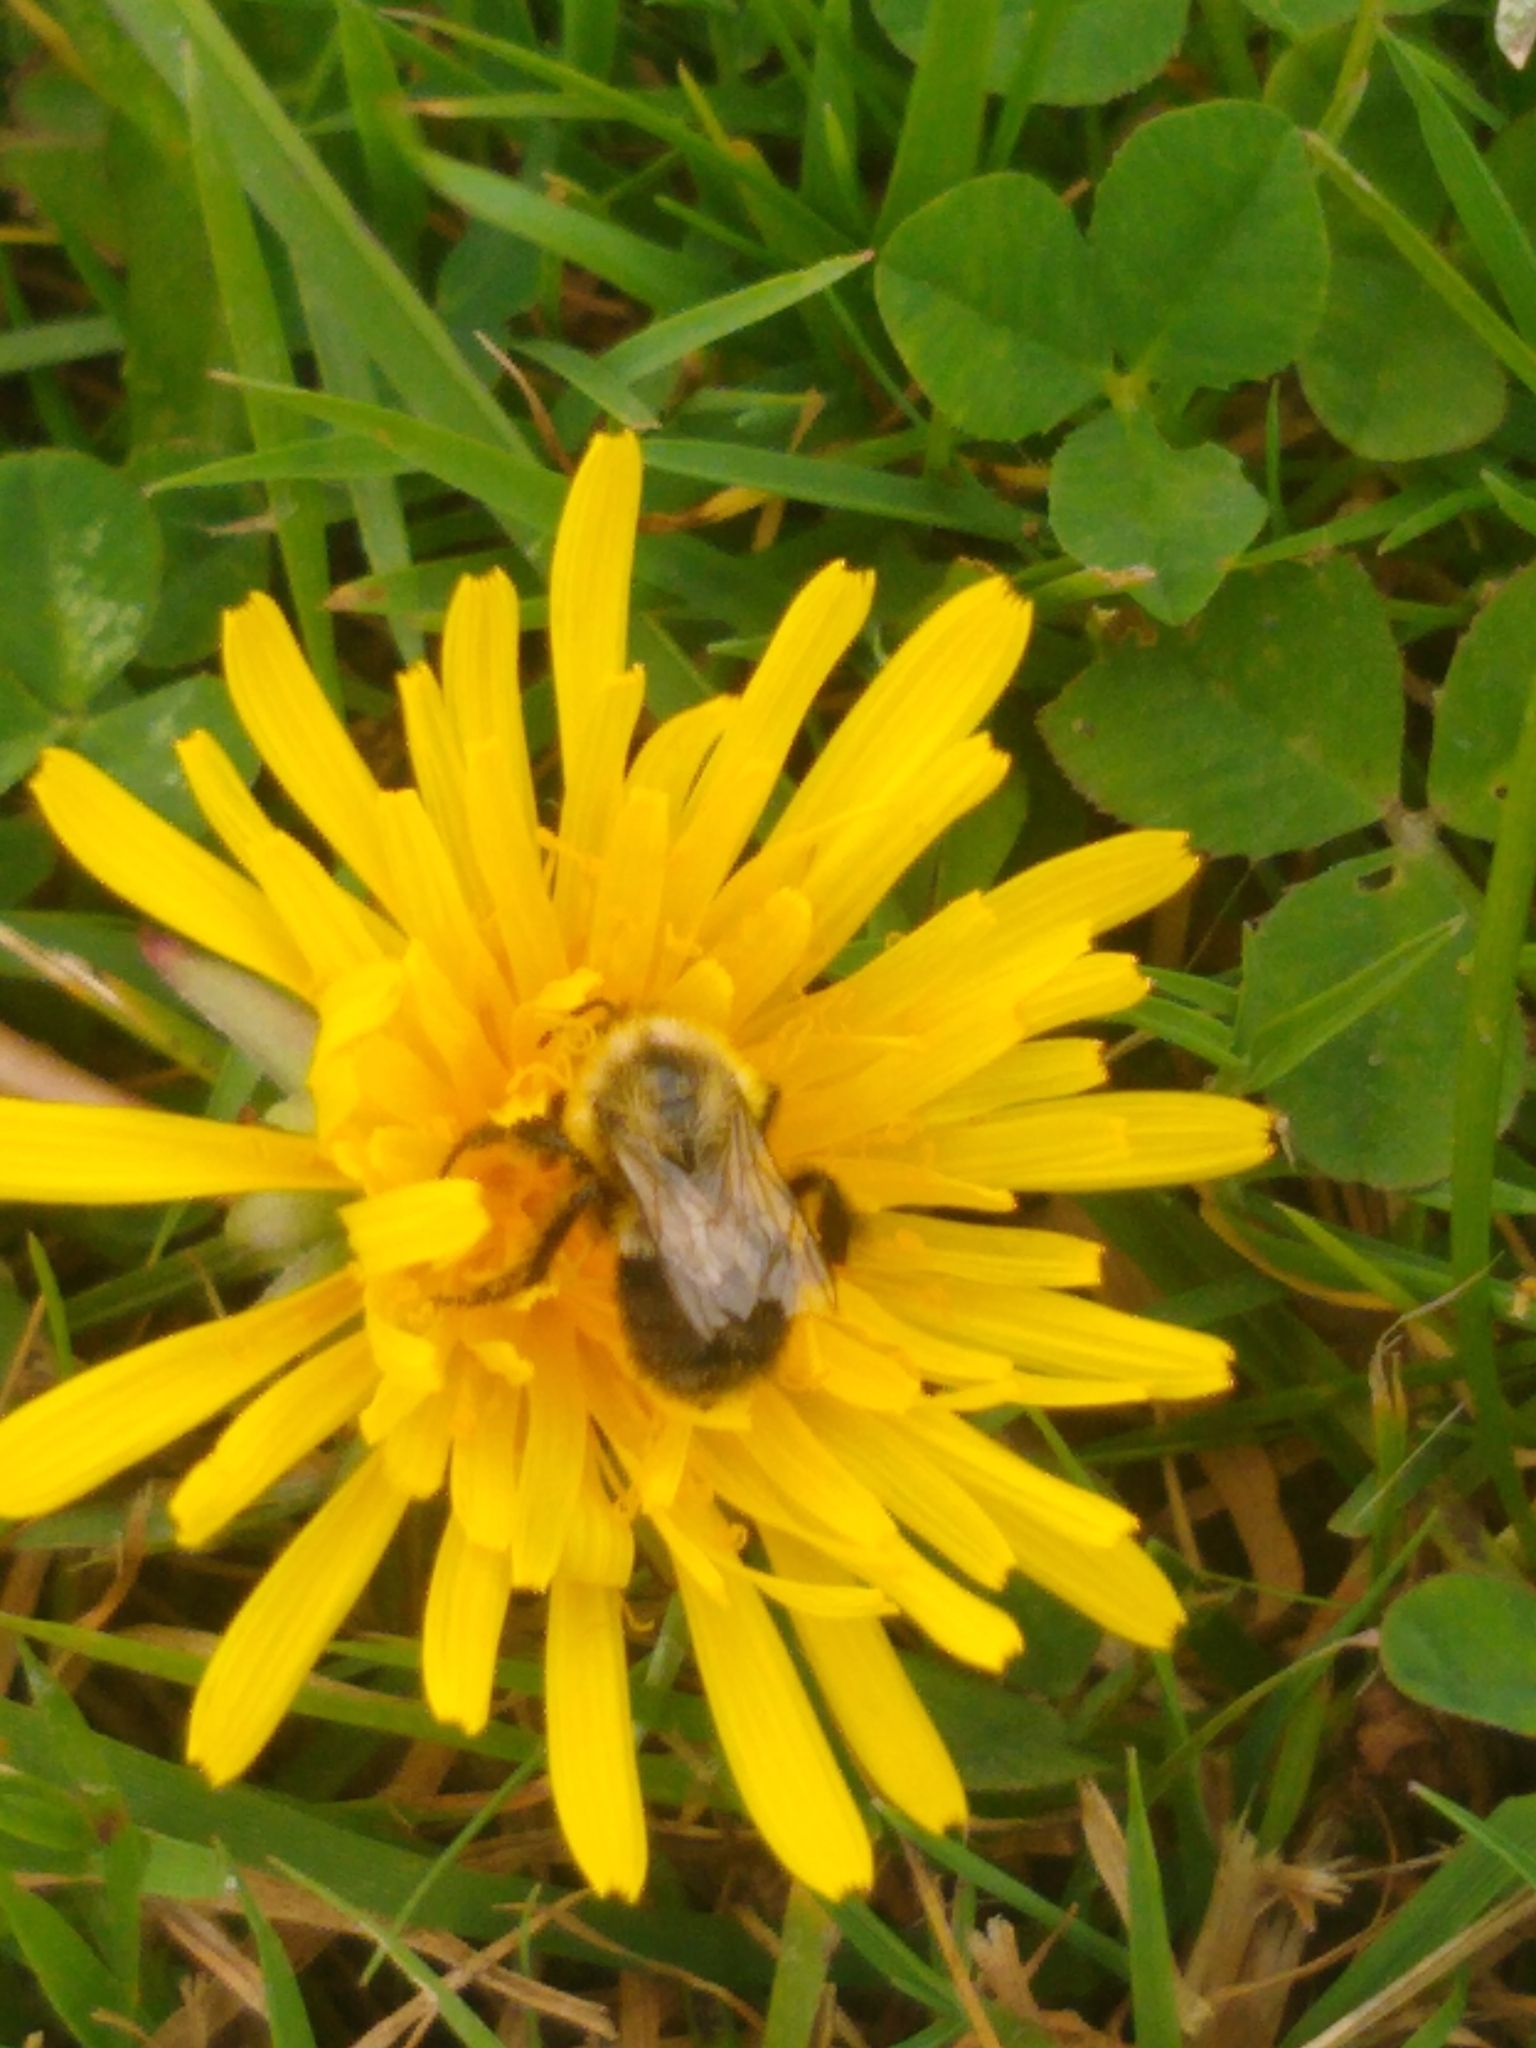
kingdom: Animalia
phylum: Arthropoda
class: Insecta
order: Hymenoptera
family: Apidae
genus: Bombus
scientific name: Bombus impatiens
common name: Common eastern bumble bee
